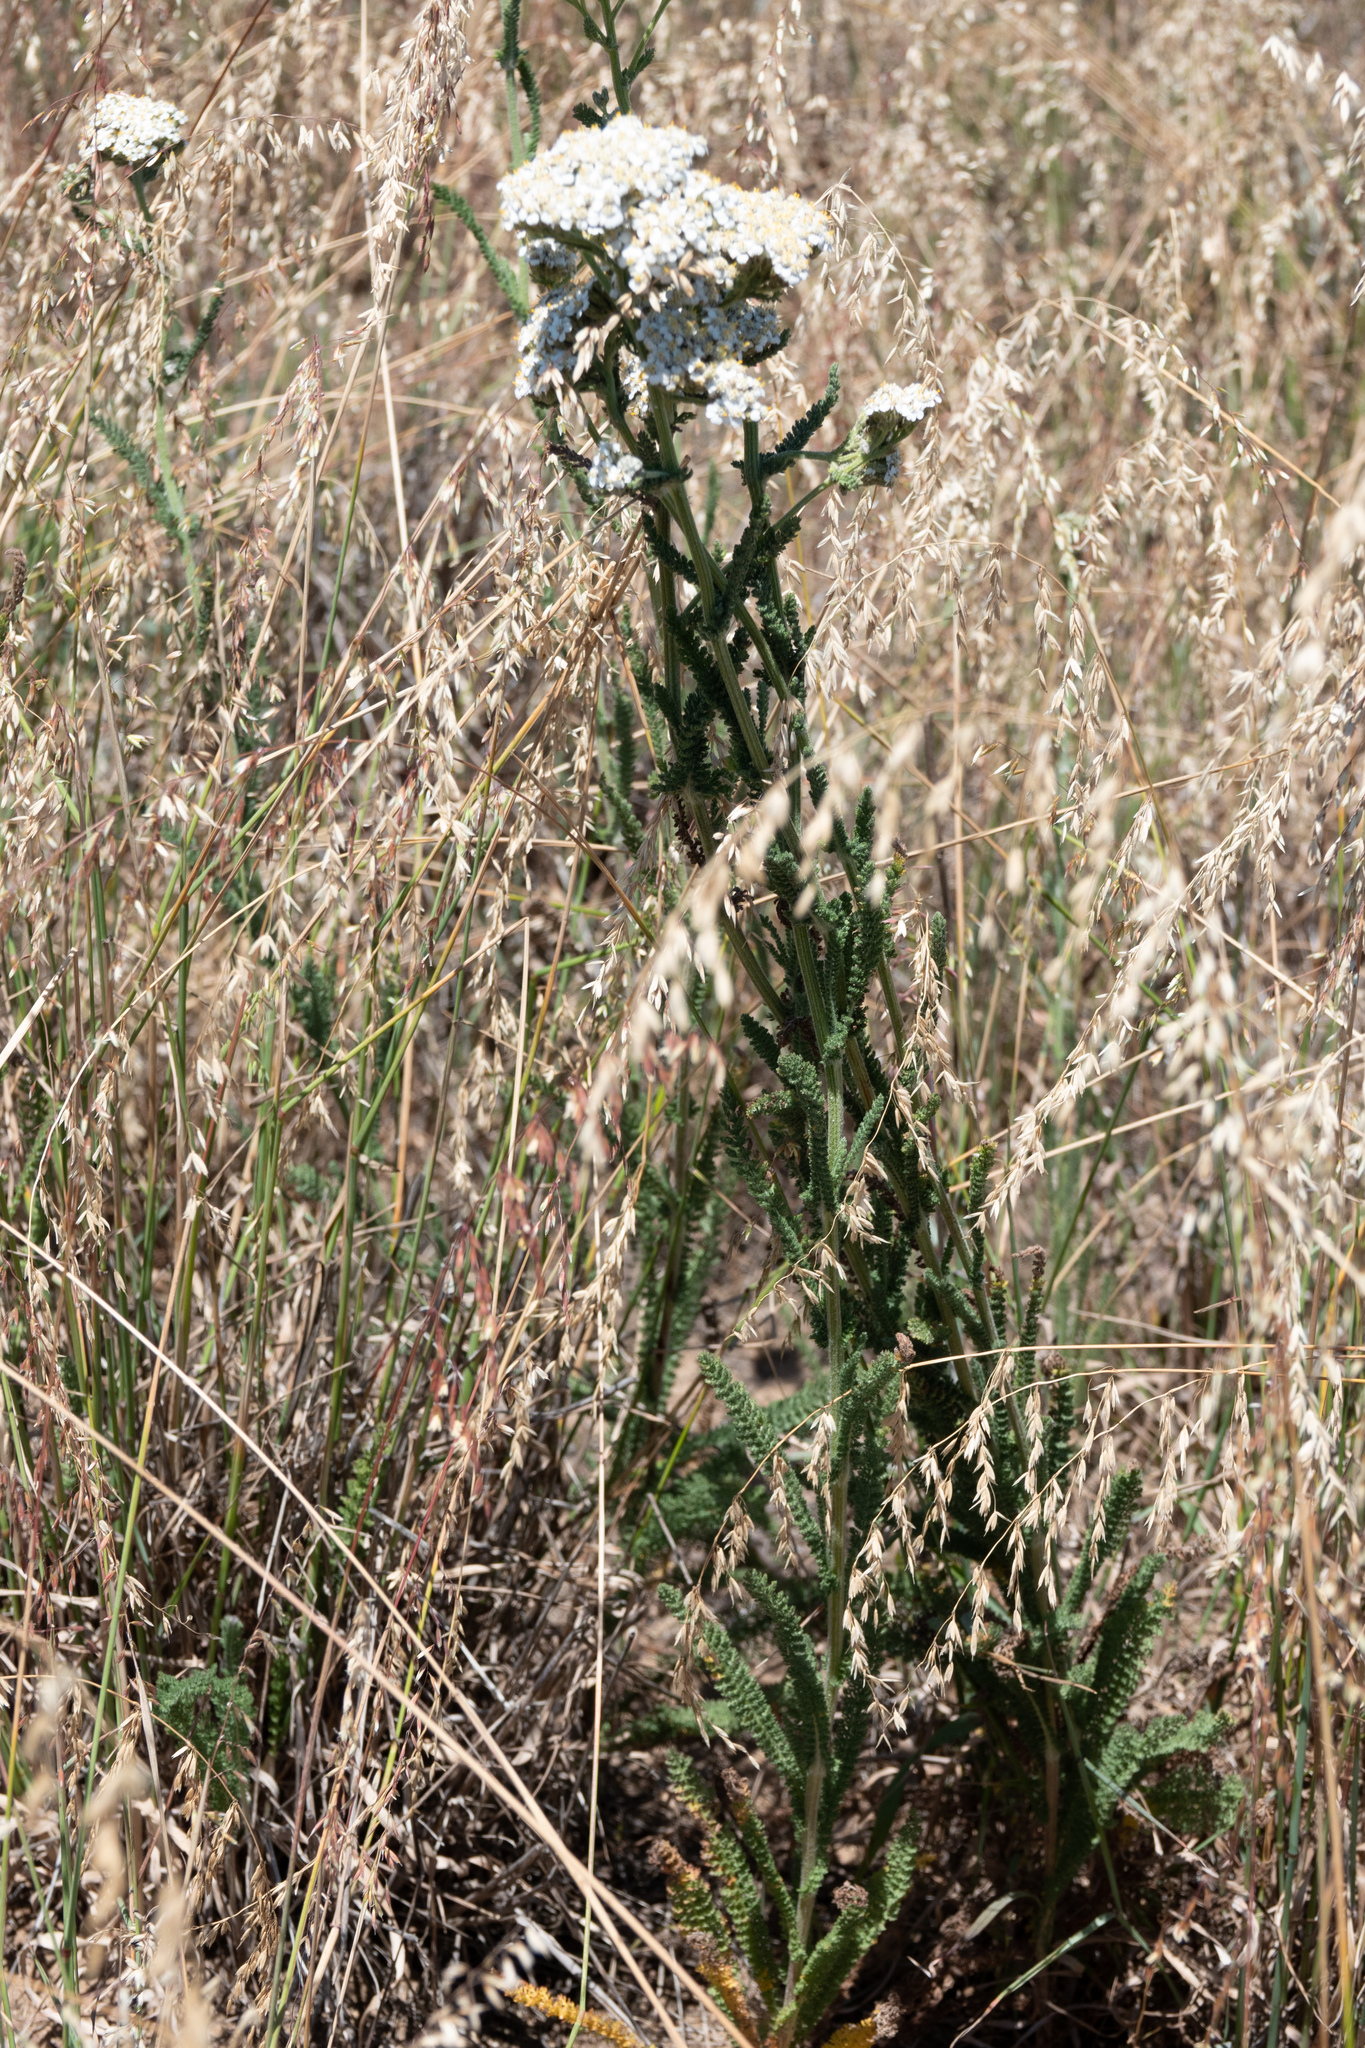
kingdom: Plantae
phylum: Tracheophyta
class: Magnoliopsida
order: Asterales
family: Asteraceae
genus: Achillea
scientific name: Achillea millefolium
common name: Yarrow
